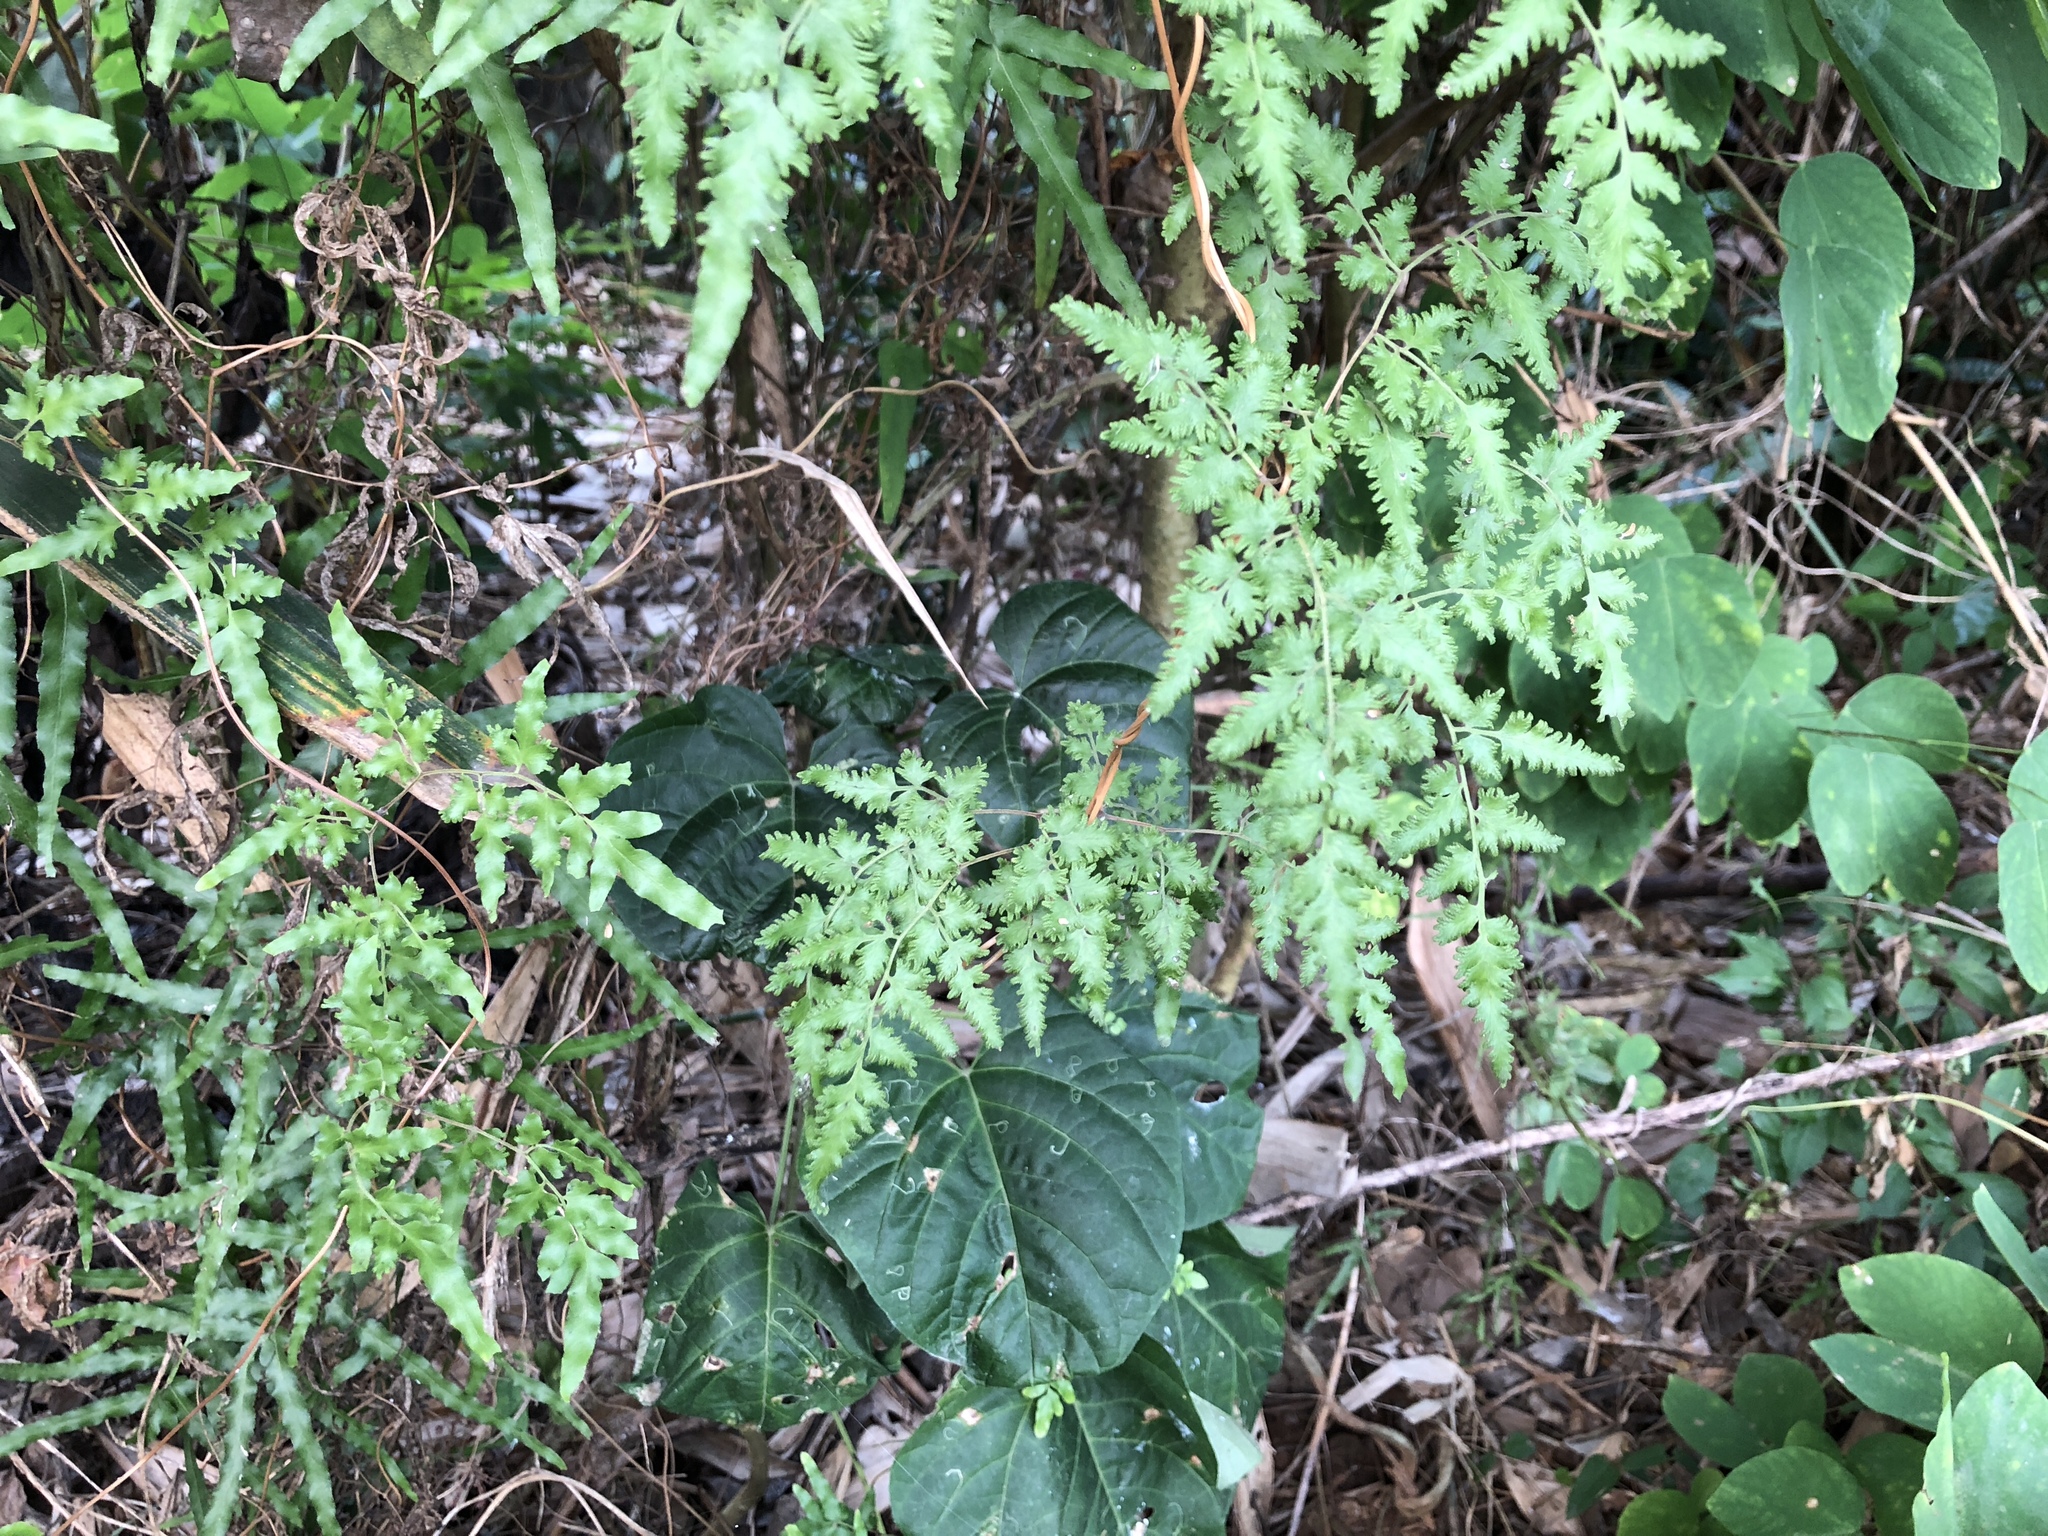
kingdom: Plantae
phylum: Tracheophyta
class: Polypodiopsida
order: Schizaeales
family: Lygodiaceae
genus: Lygodium
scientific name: Lygodium japonicum
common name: Japanese climbing fern
